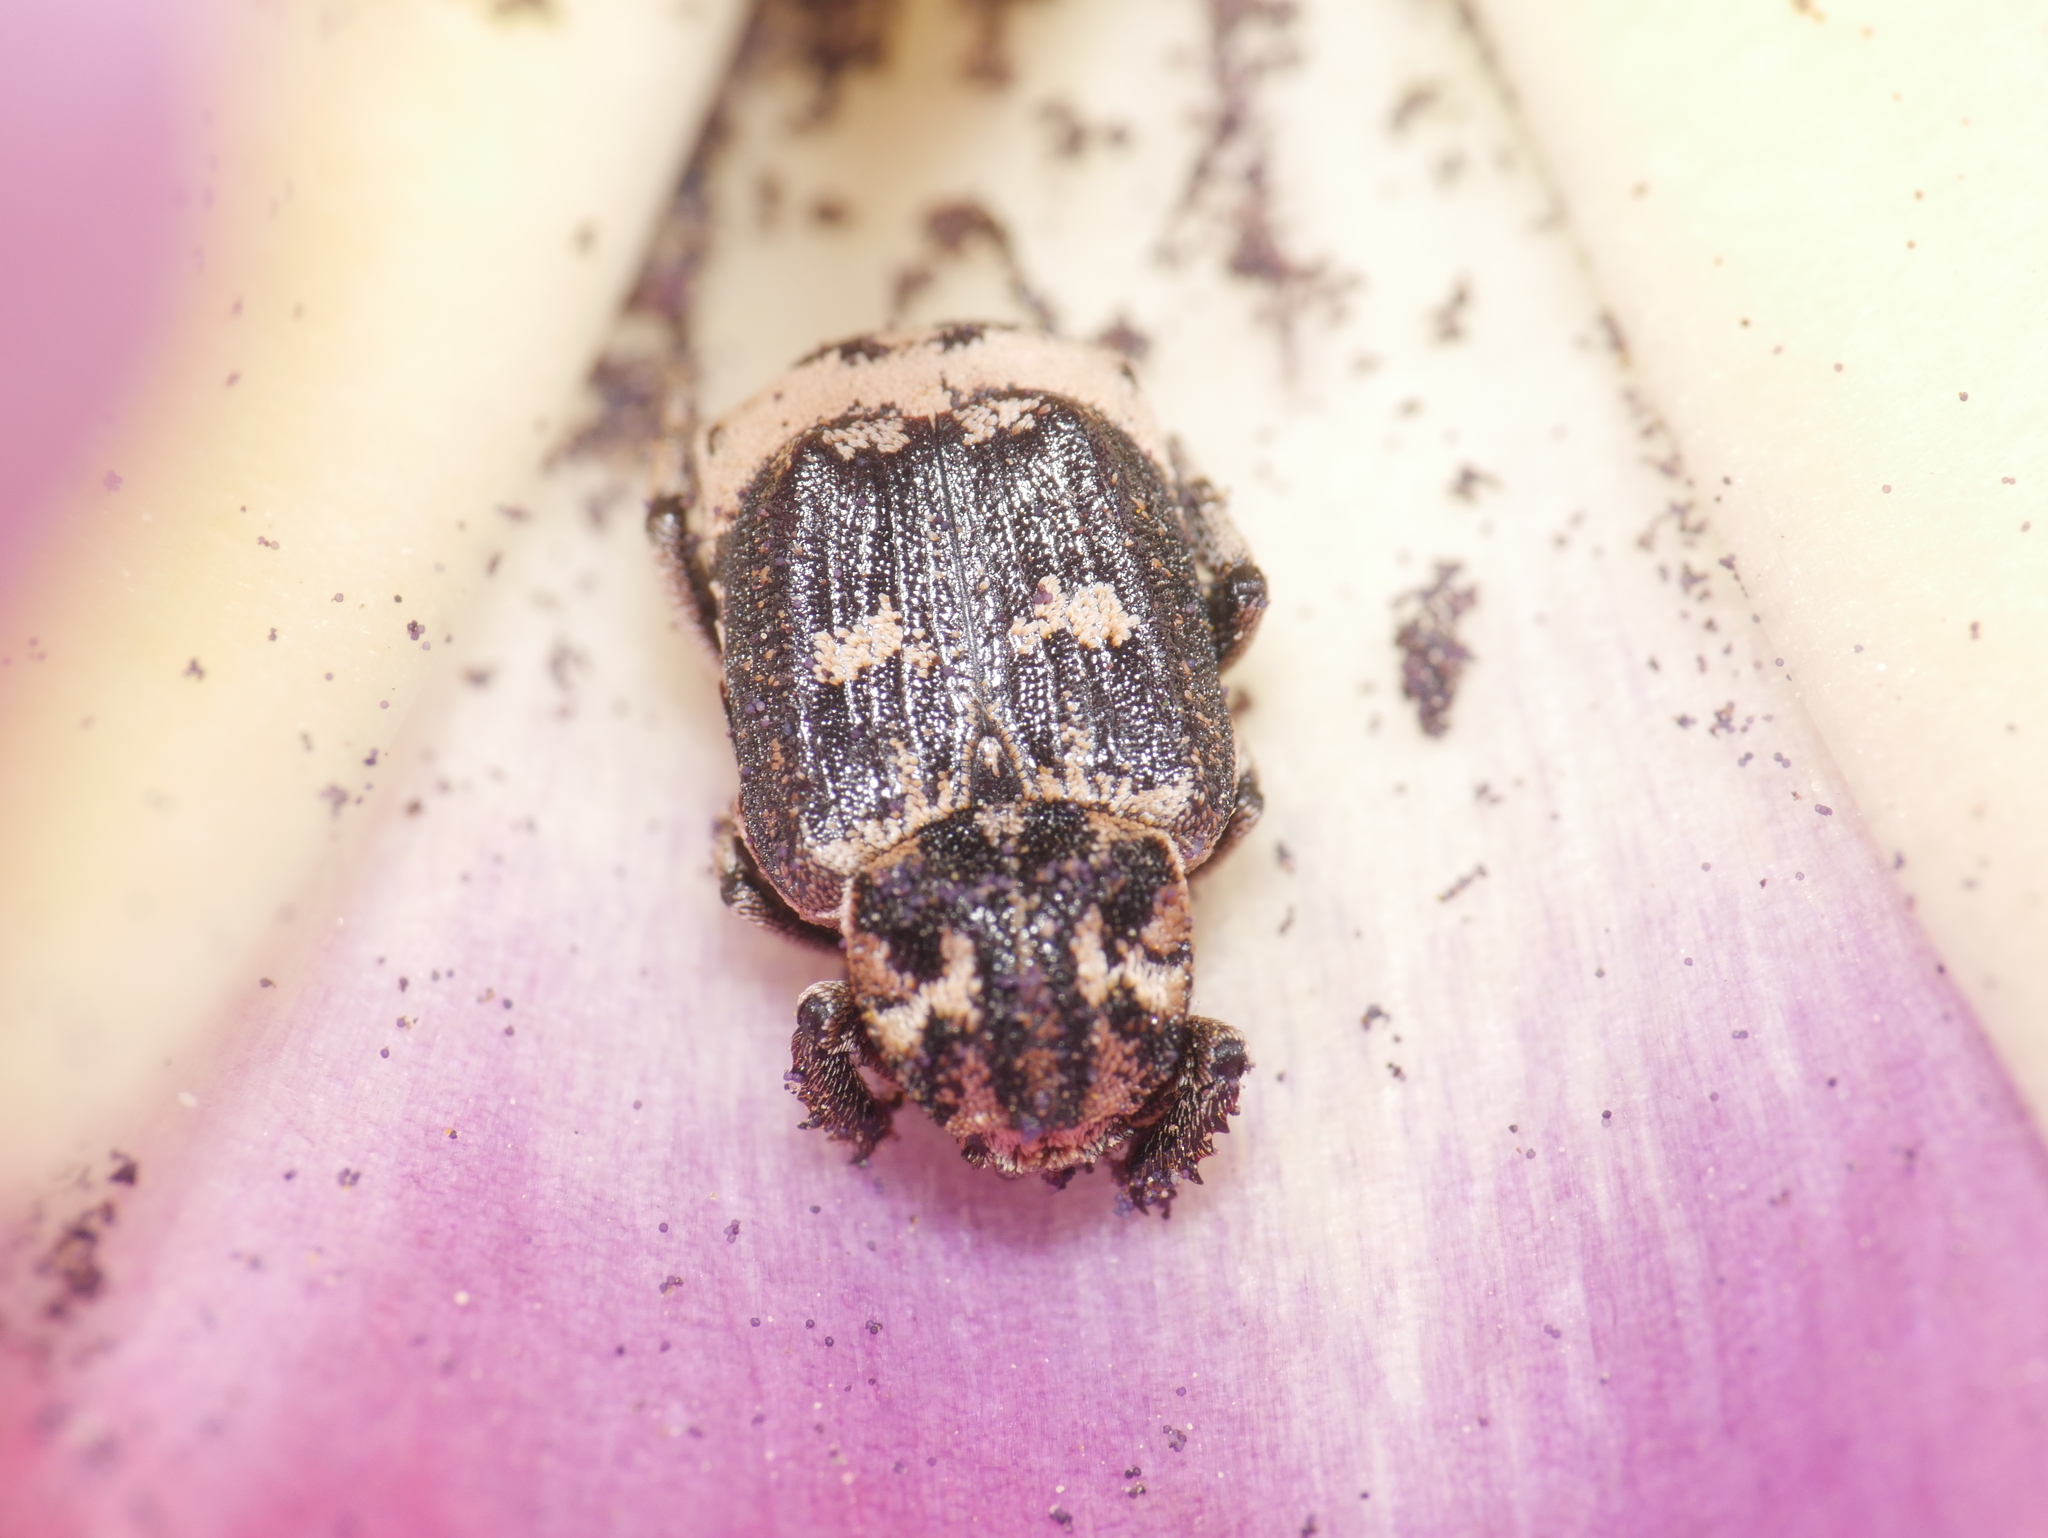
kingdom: Animalia
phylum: Arthropoda
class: Insecta
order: Coleoptera
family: Scarabaeidae
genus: Valgus
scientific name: Valgus hemipterus
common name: Bug flower chafer
